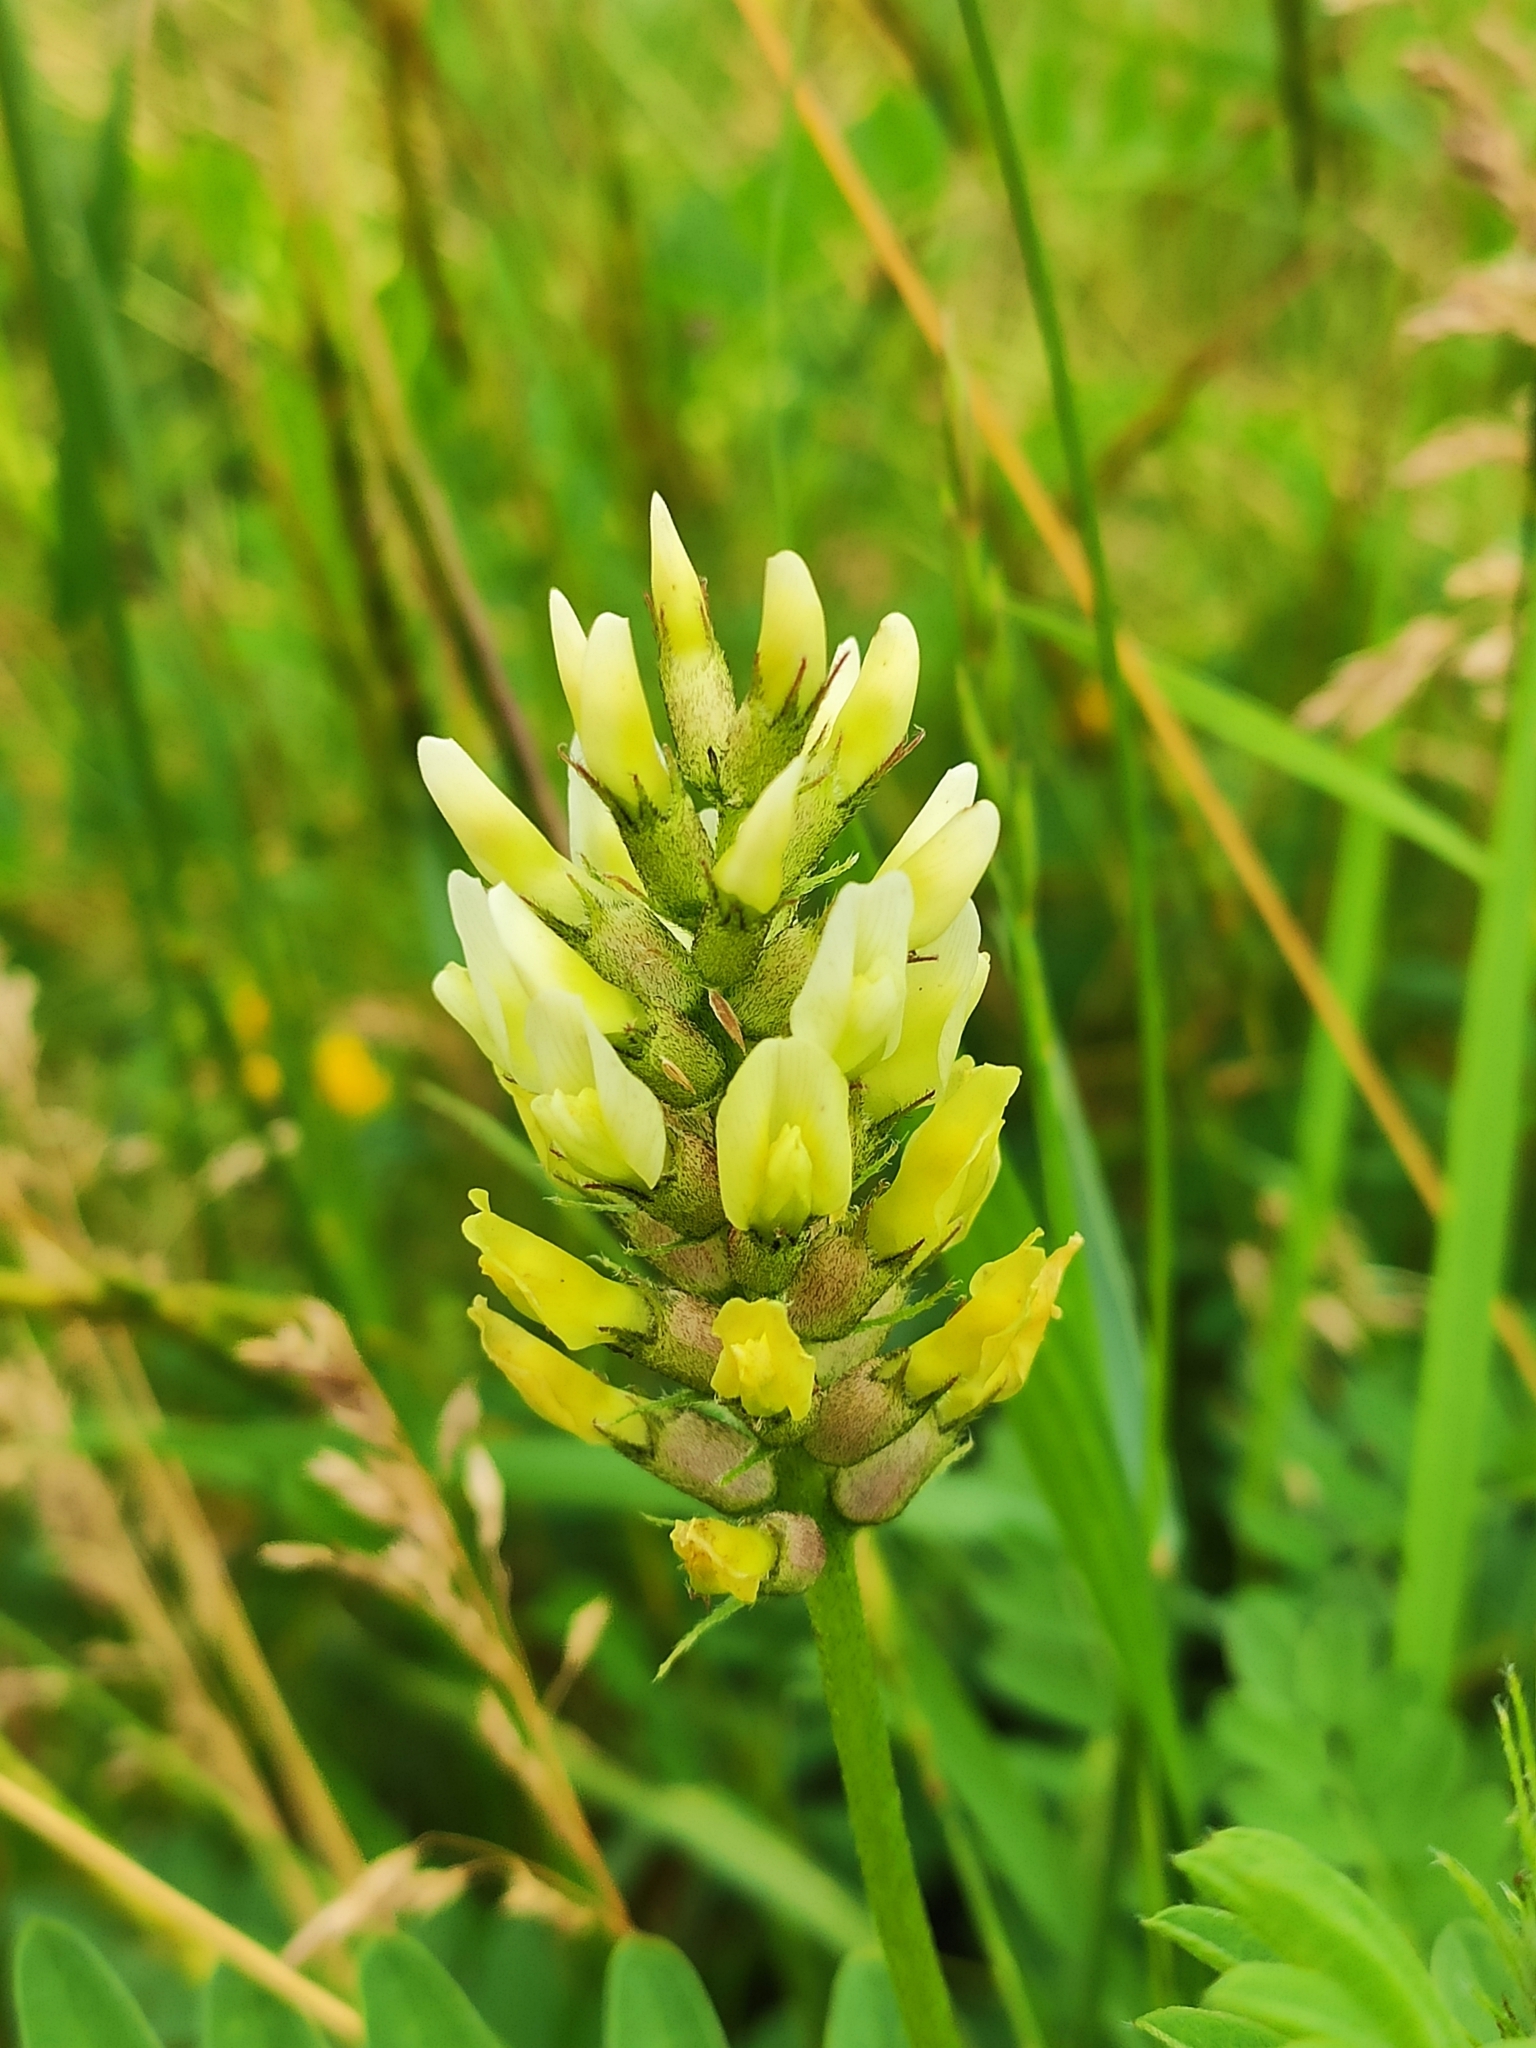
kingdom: Plantae
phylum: Tracheophyta
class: Magnoliopsida
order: Fabales
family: Fabaceae
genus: Astragalus
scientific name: Astragalus cicer
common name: Chick-pea milk-vetch
